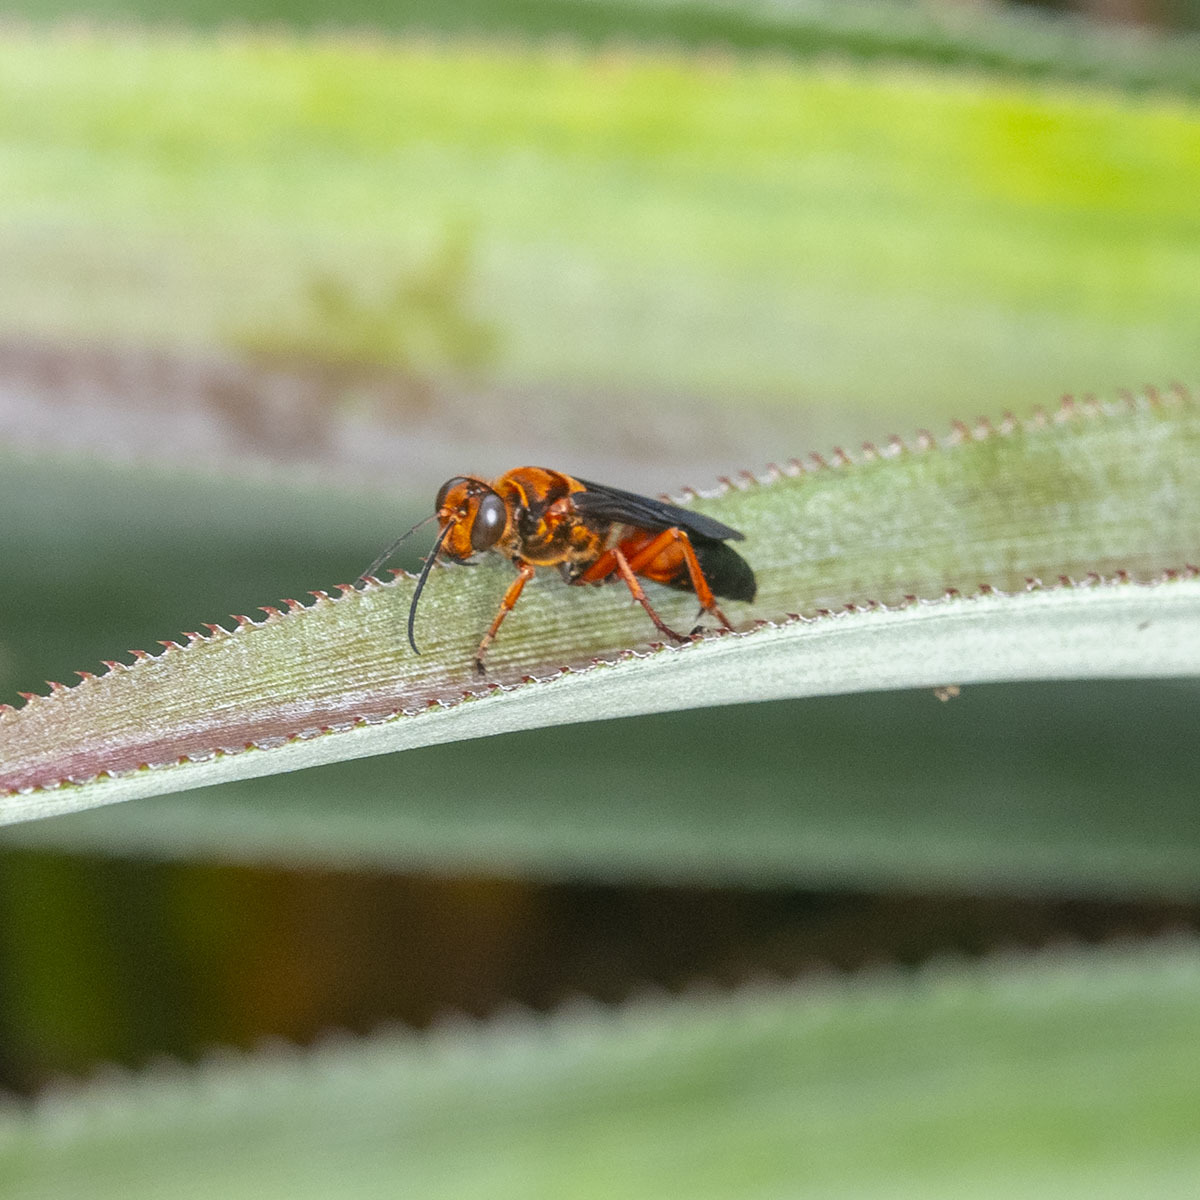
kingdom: Animalia
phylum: Arthropoda
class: Insecta
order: Hymenoptera
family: Sphecidae
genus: Sphex
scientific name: Sphex sericeus
